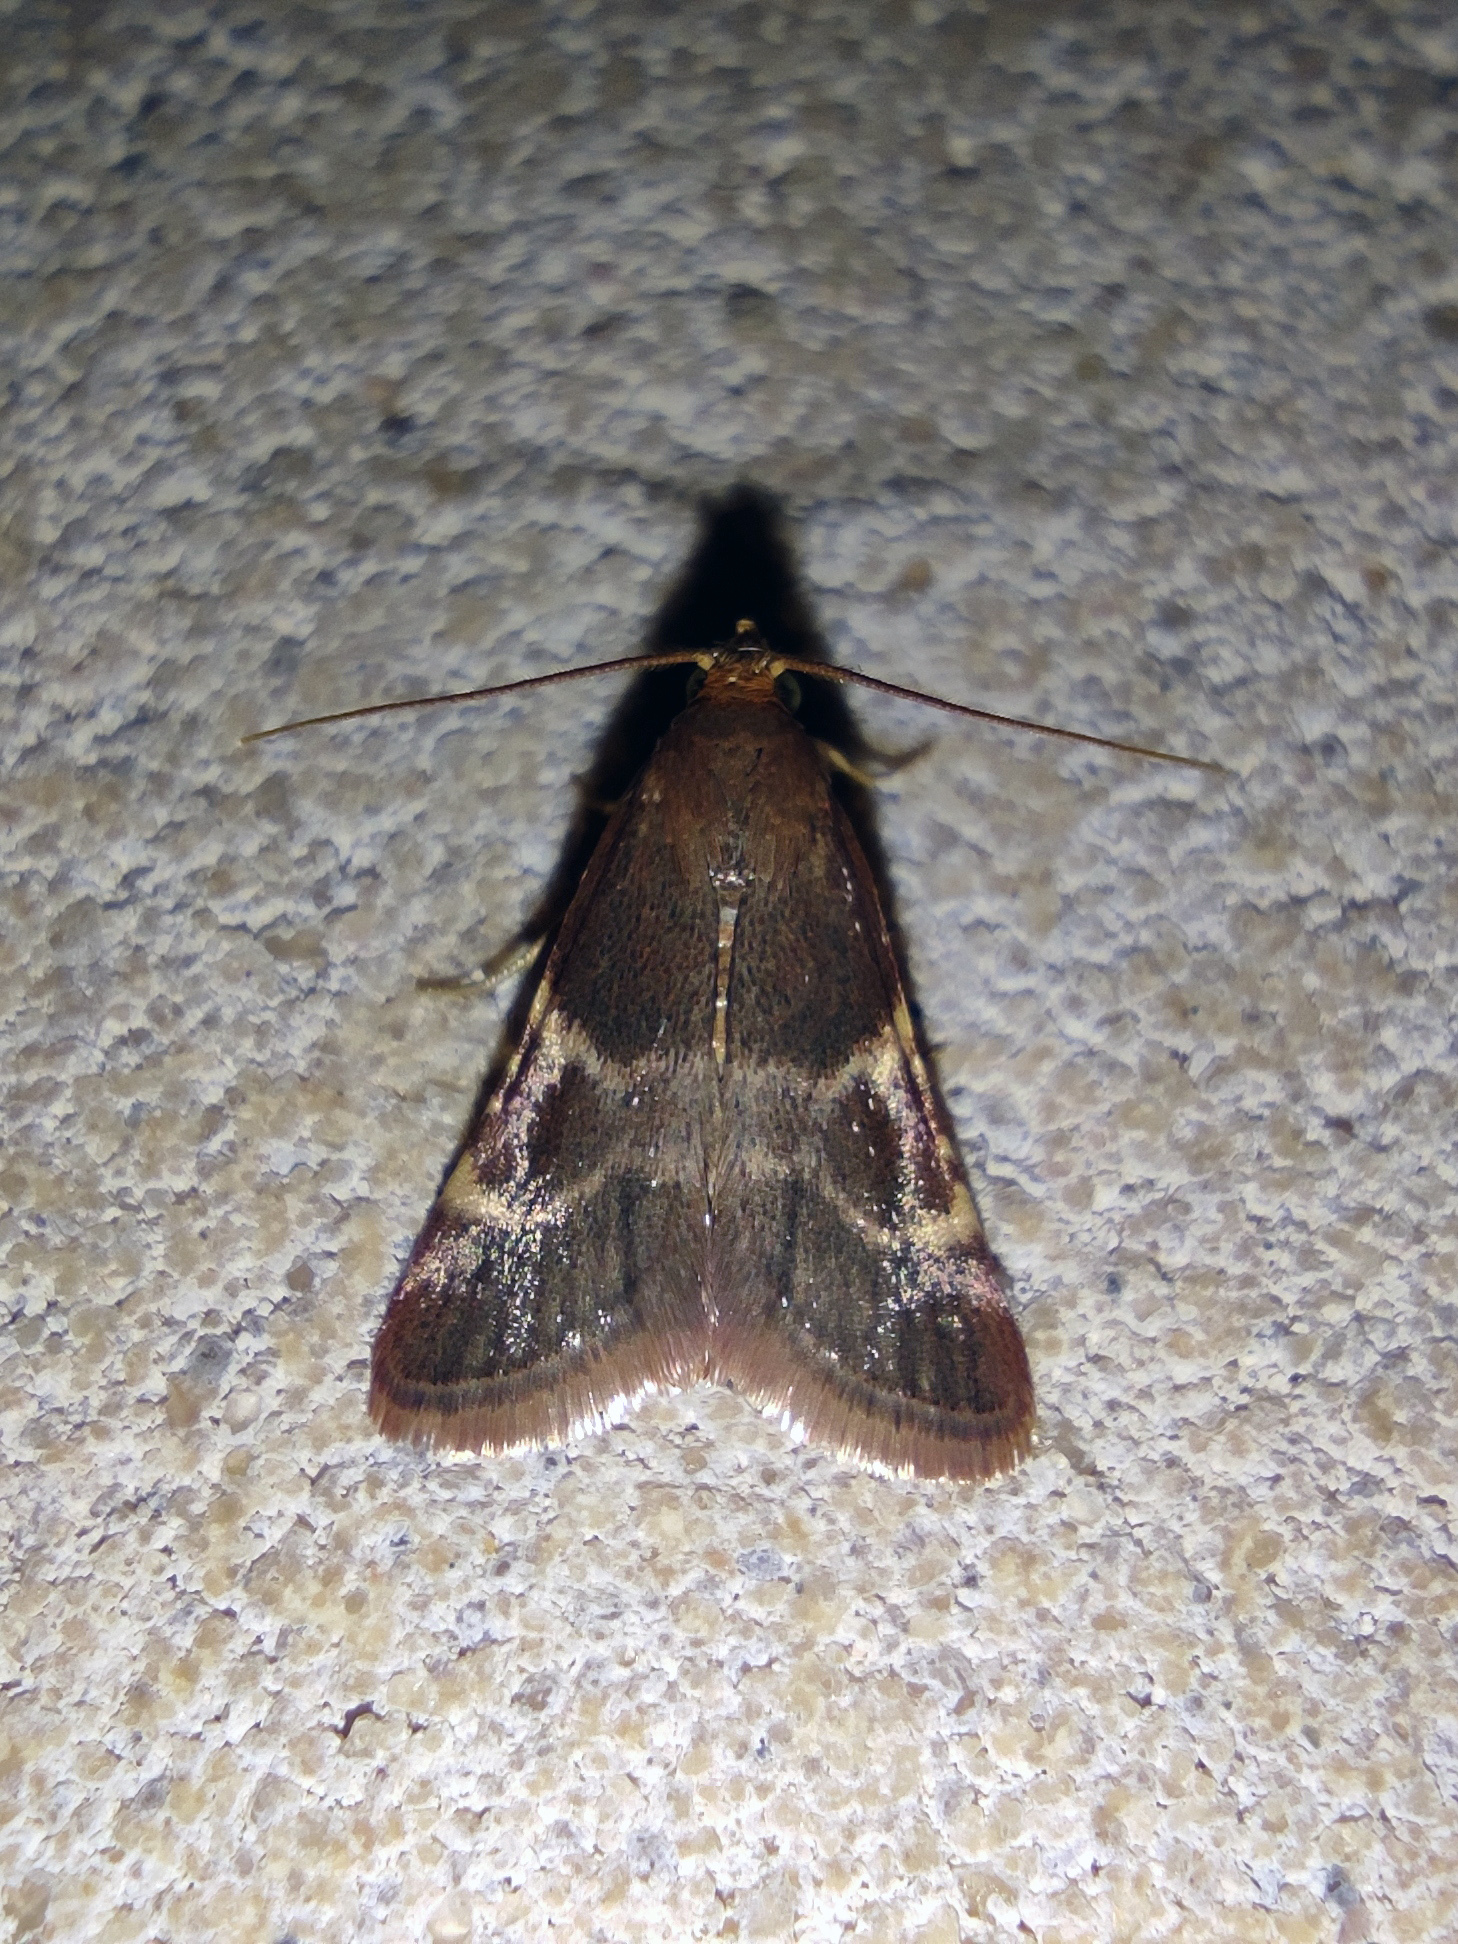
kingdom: Animalia
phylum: Arthropoda
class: Insecta
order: Lepidoptera
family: Pyralidae
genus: Pyralis
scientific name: Pyralis perversalis
